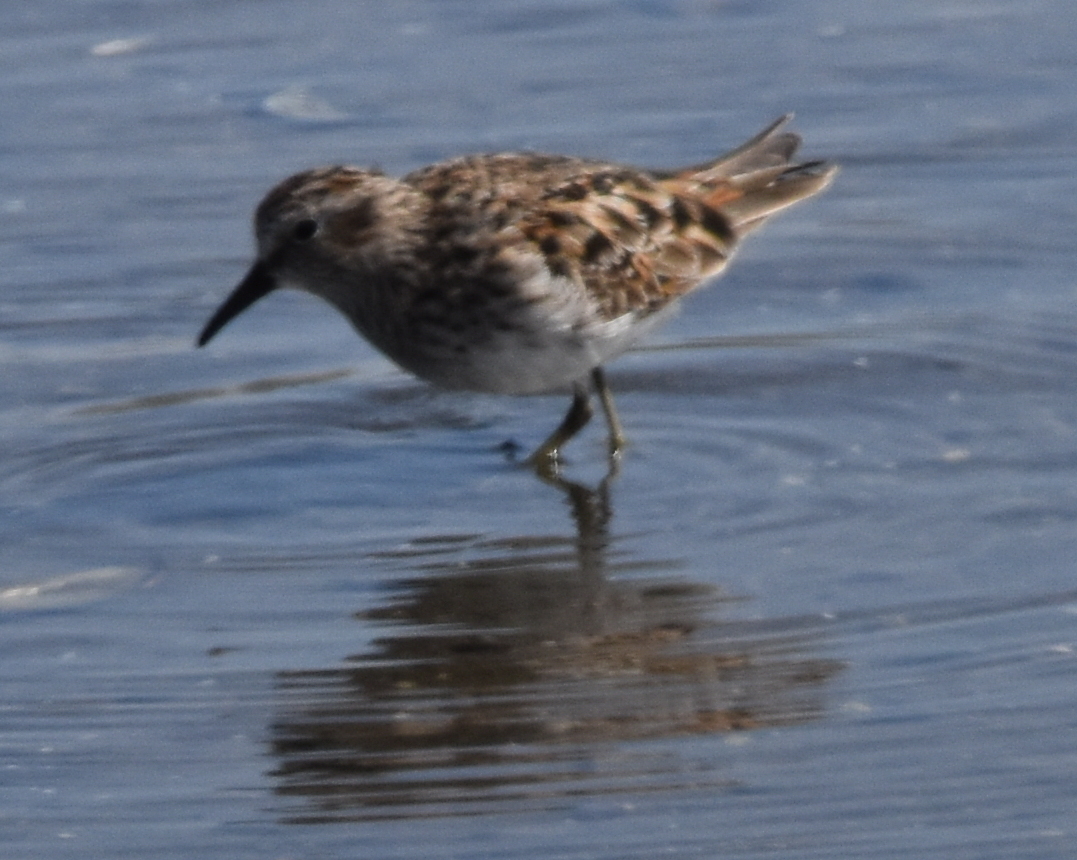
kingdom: Animalia
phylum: Chordata
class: Aves
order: Charadriiformes
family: Scolopacidae
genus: Calidris
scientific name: Calidris minutilla
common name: Least sandpiper
